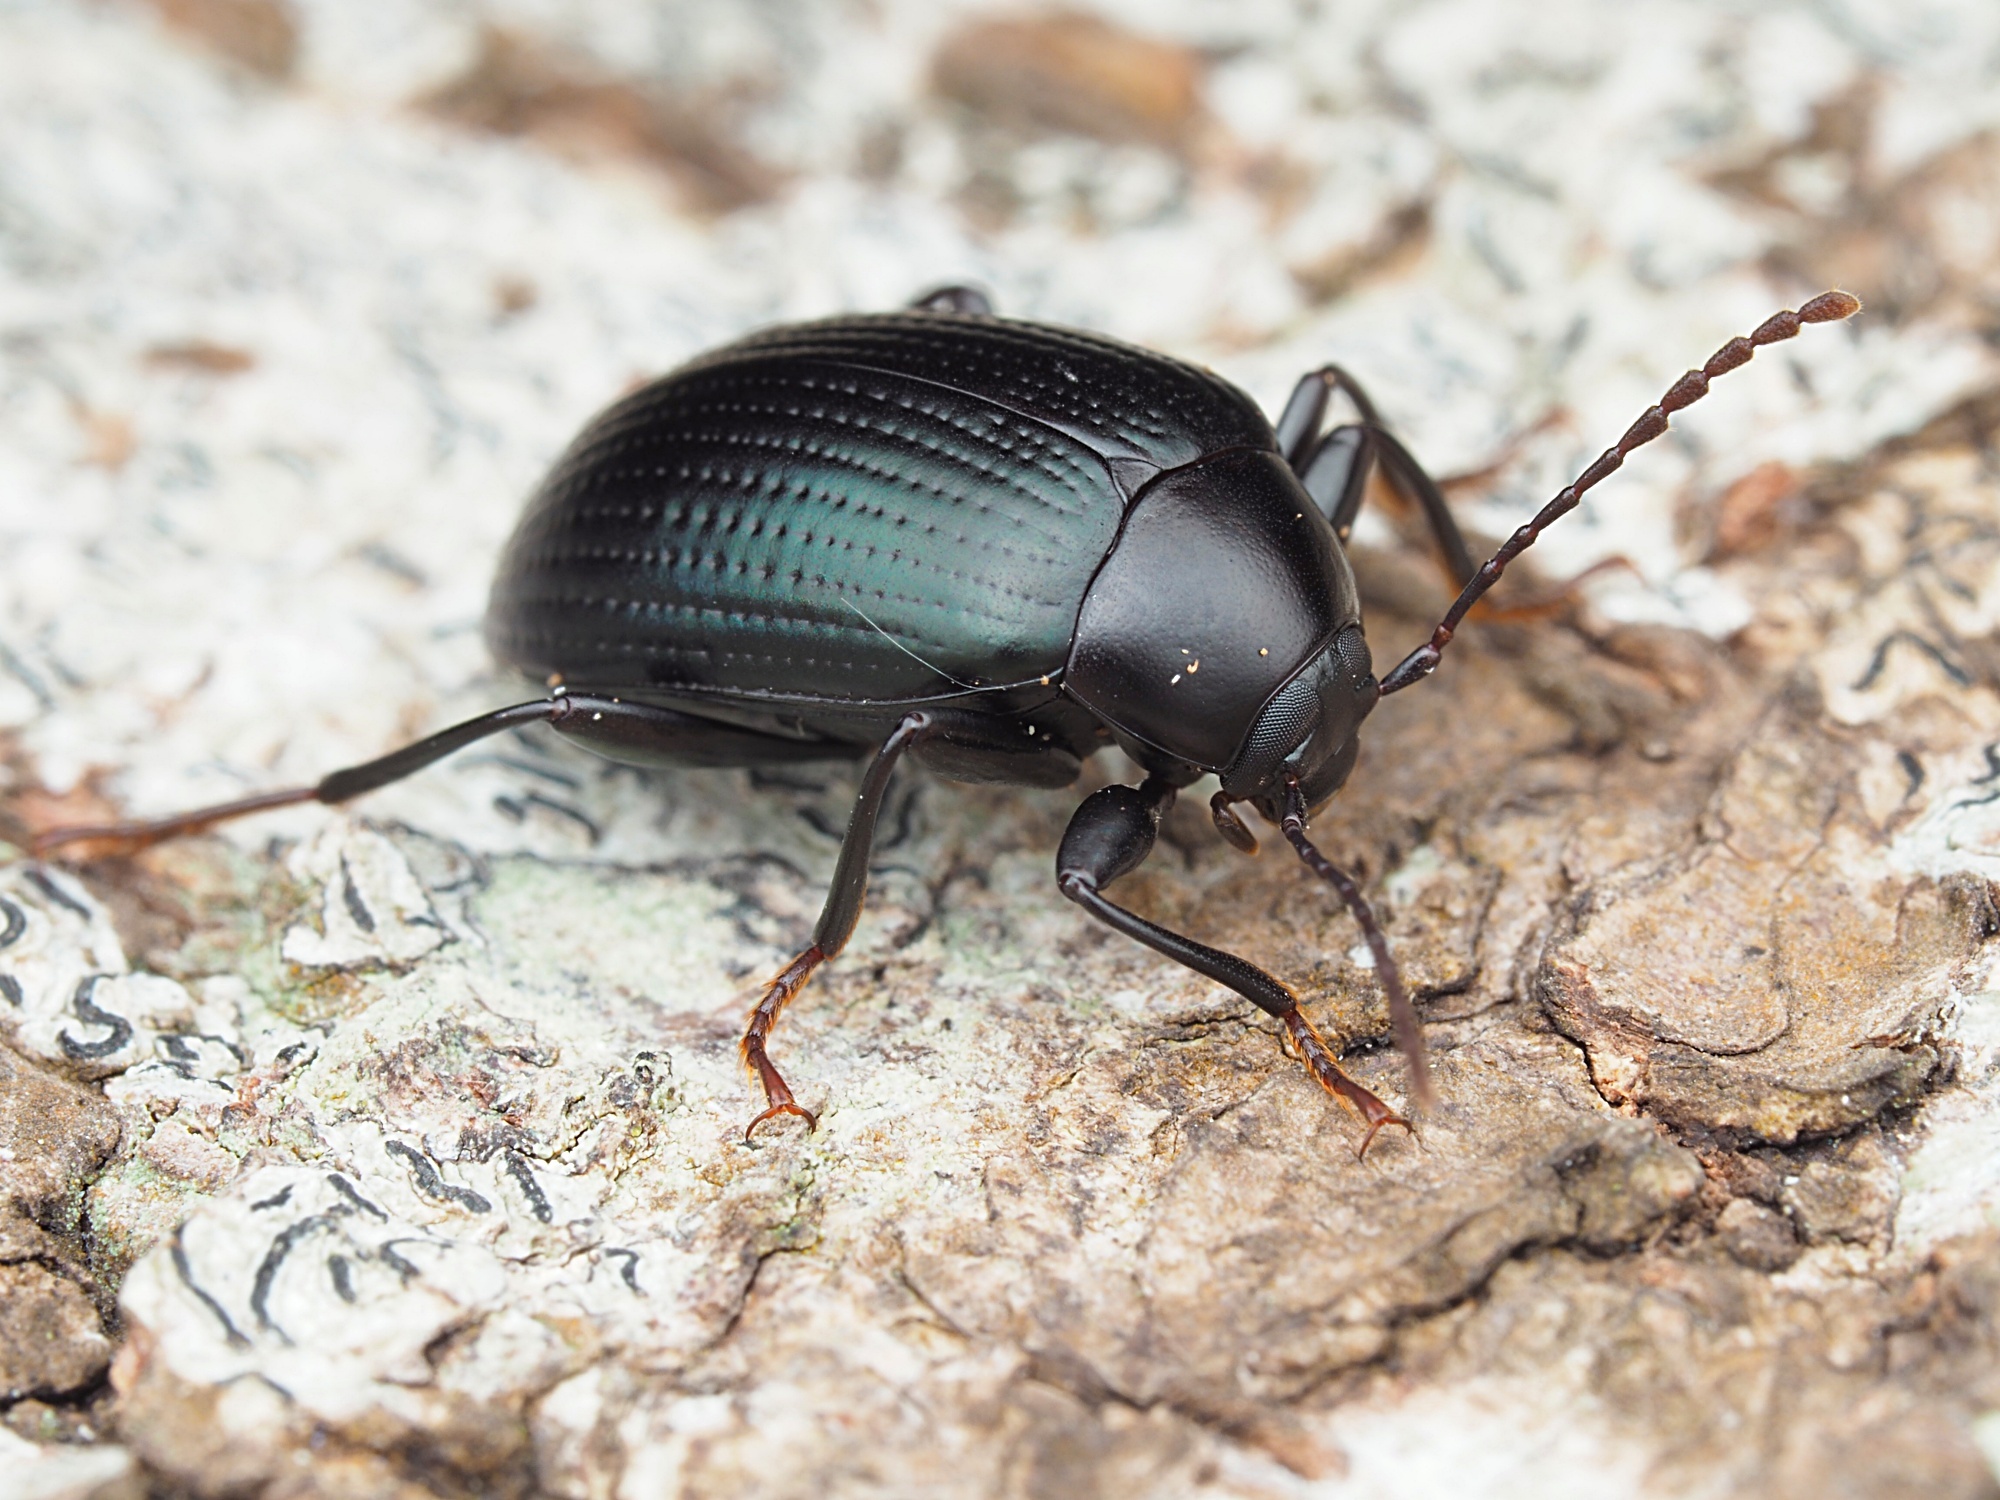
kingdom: Animalia
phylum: Arthropoda
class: Insecta
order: Coleoptera
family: Tenebrionidae
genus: Amarygmus
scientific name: Amarygmus
